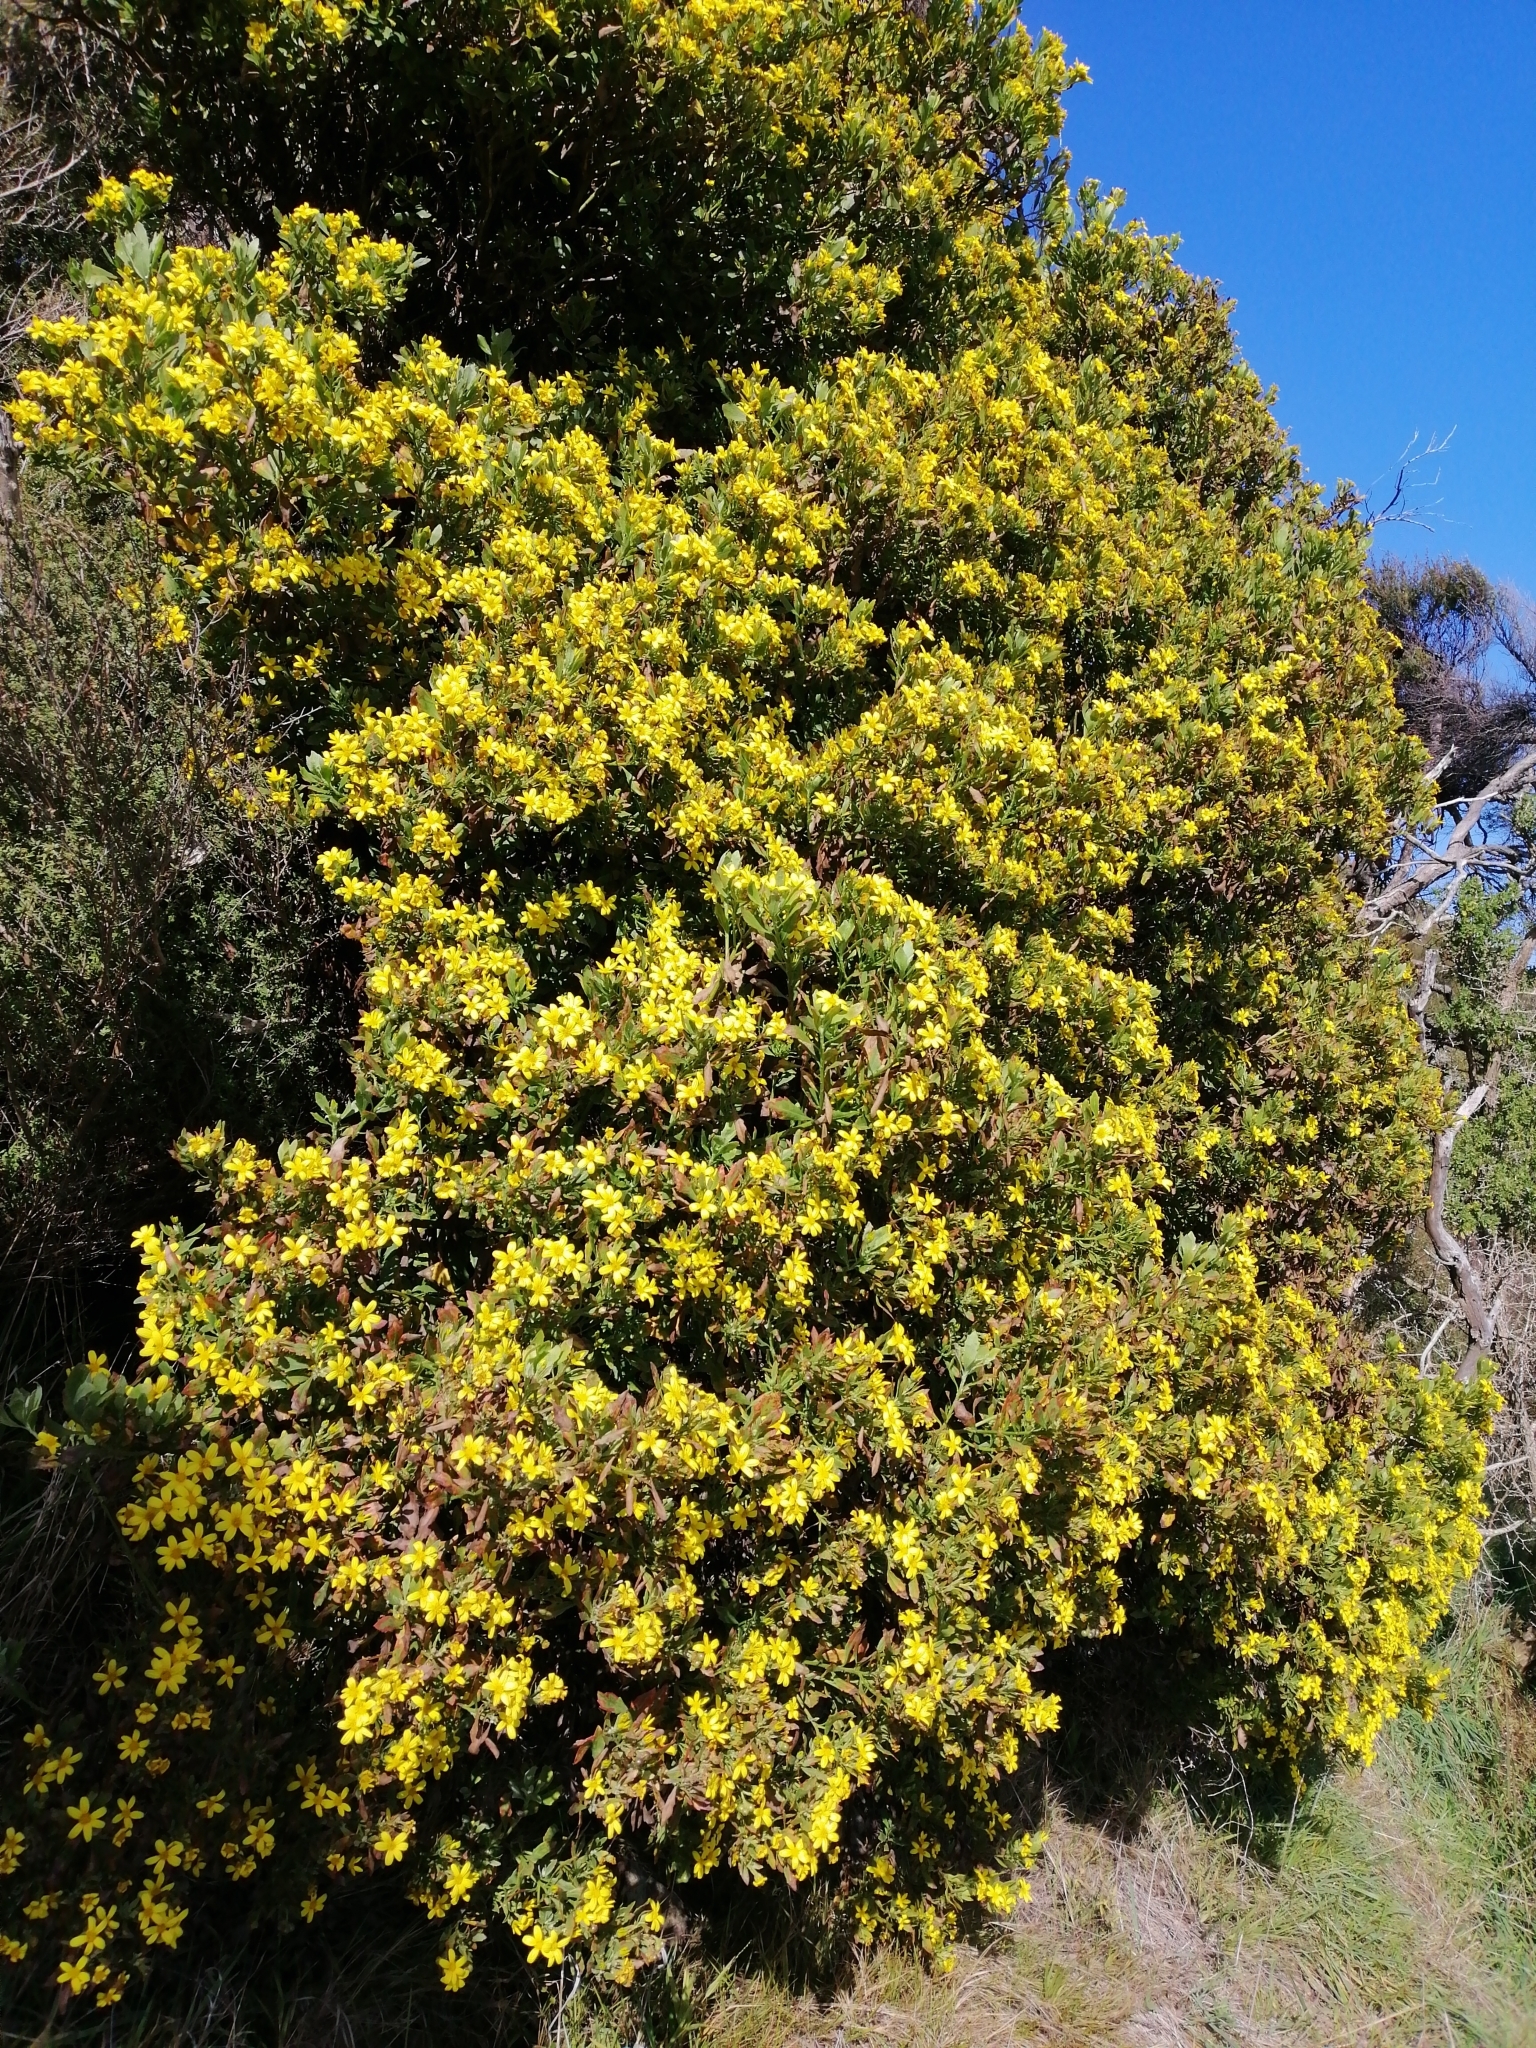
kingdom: Plantae
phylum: Tracheophyta
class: Magnoliopsida
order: Asterales
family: Asteraceae
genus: Osteospermum
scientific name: Osteospermum moniliferum
